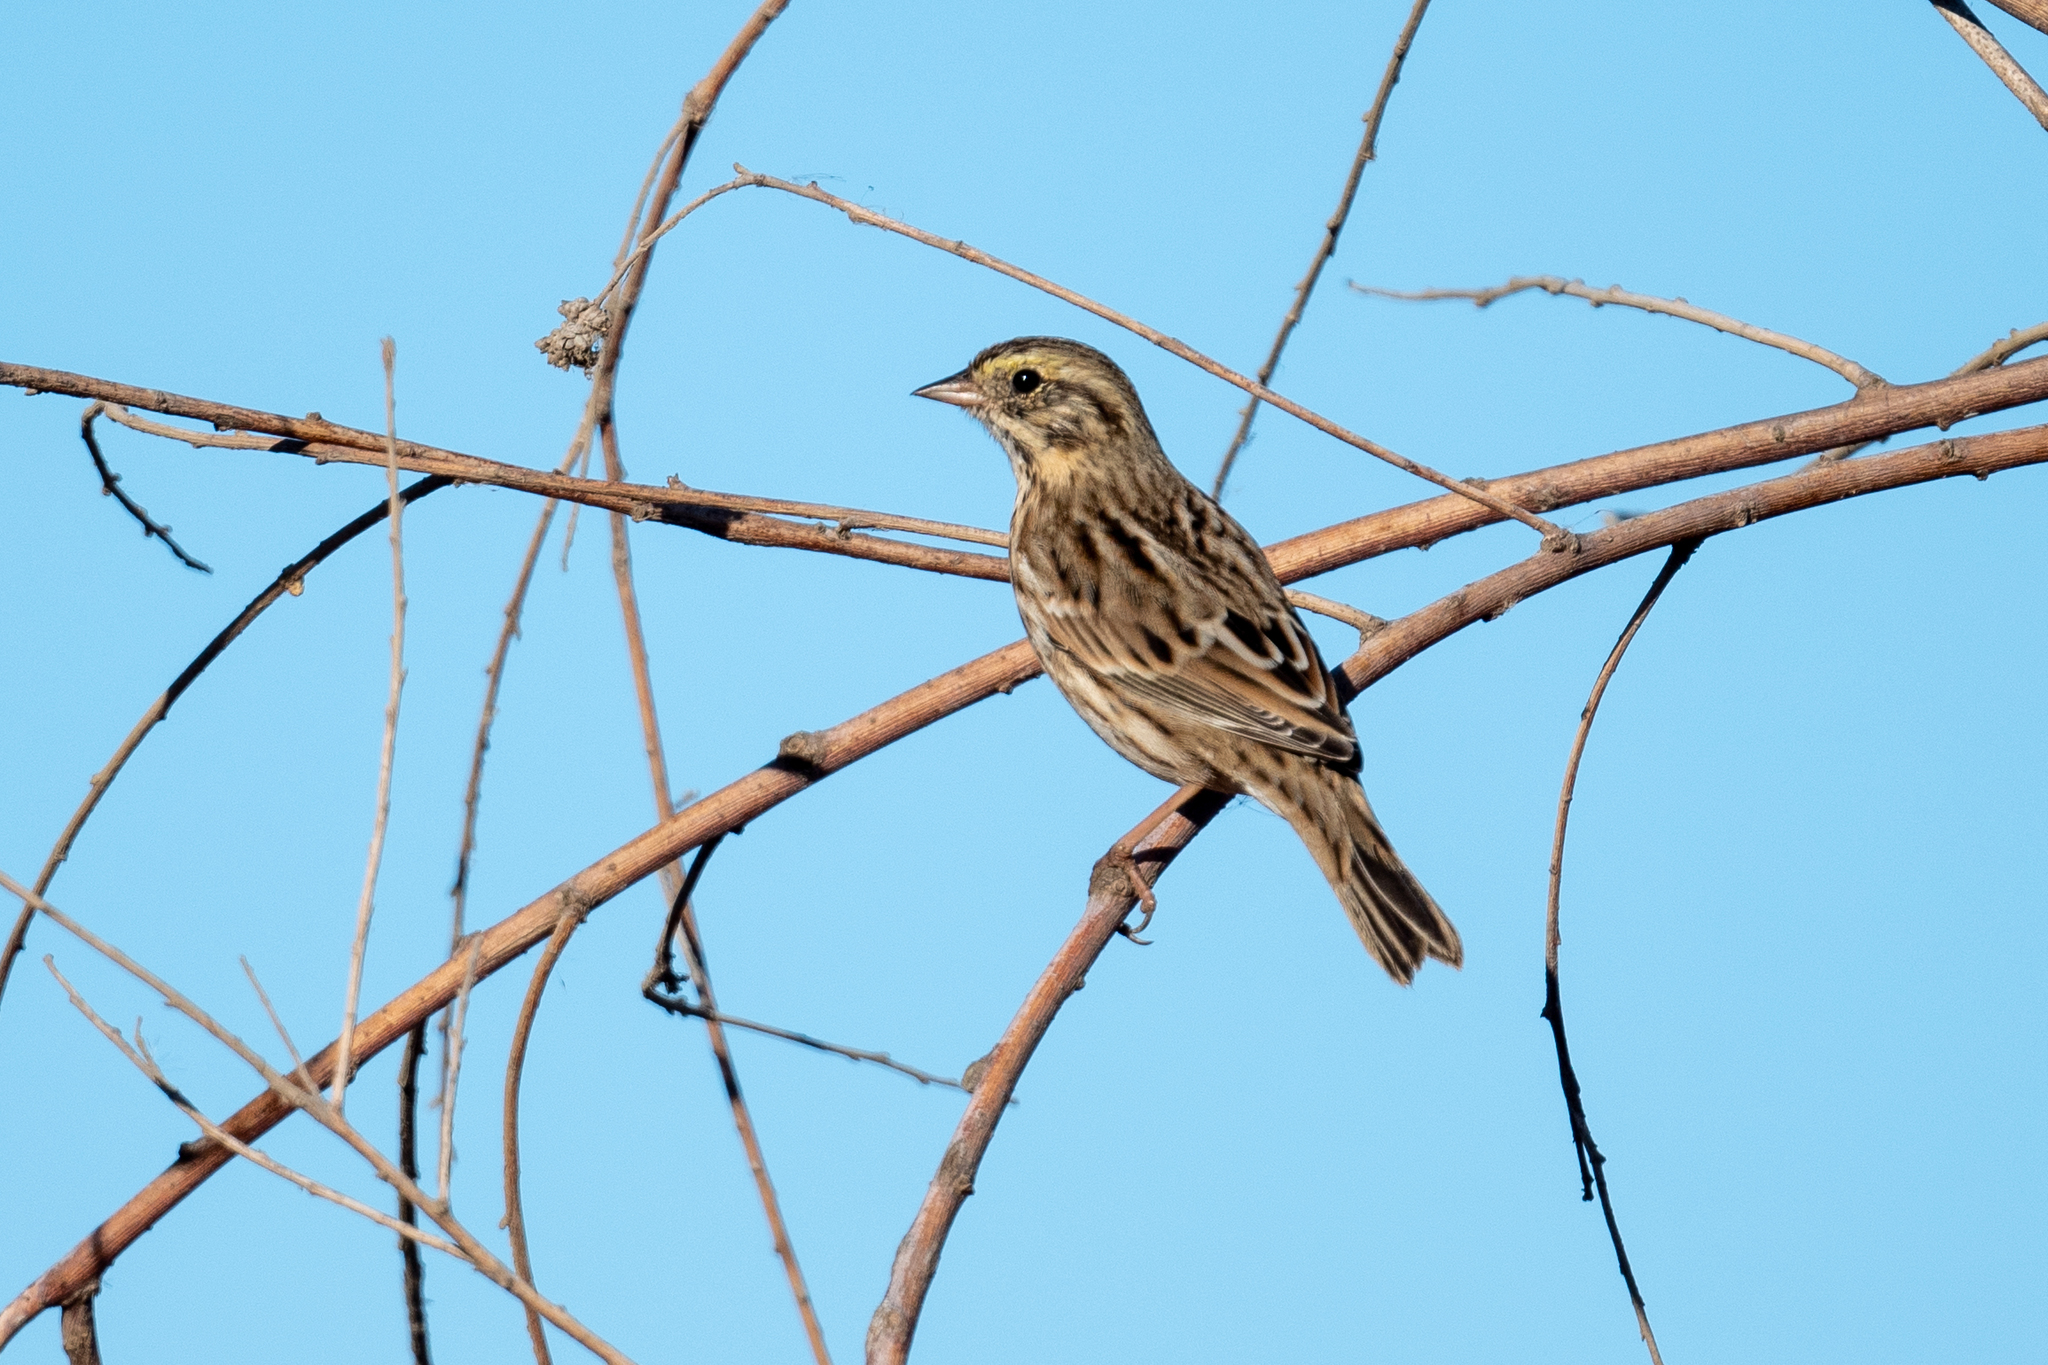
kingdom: Animalia
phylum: Chordata
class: Aves
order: Passeriformes
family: Passerellidae
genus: Passerculus
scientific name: Passerculus sandwichensis
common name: Savannah sparrow
